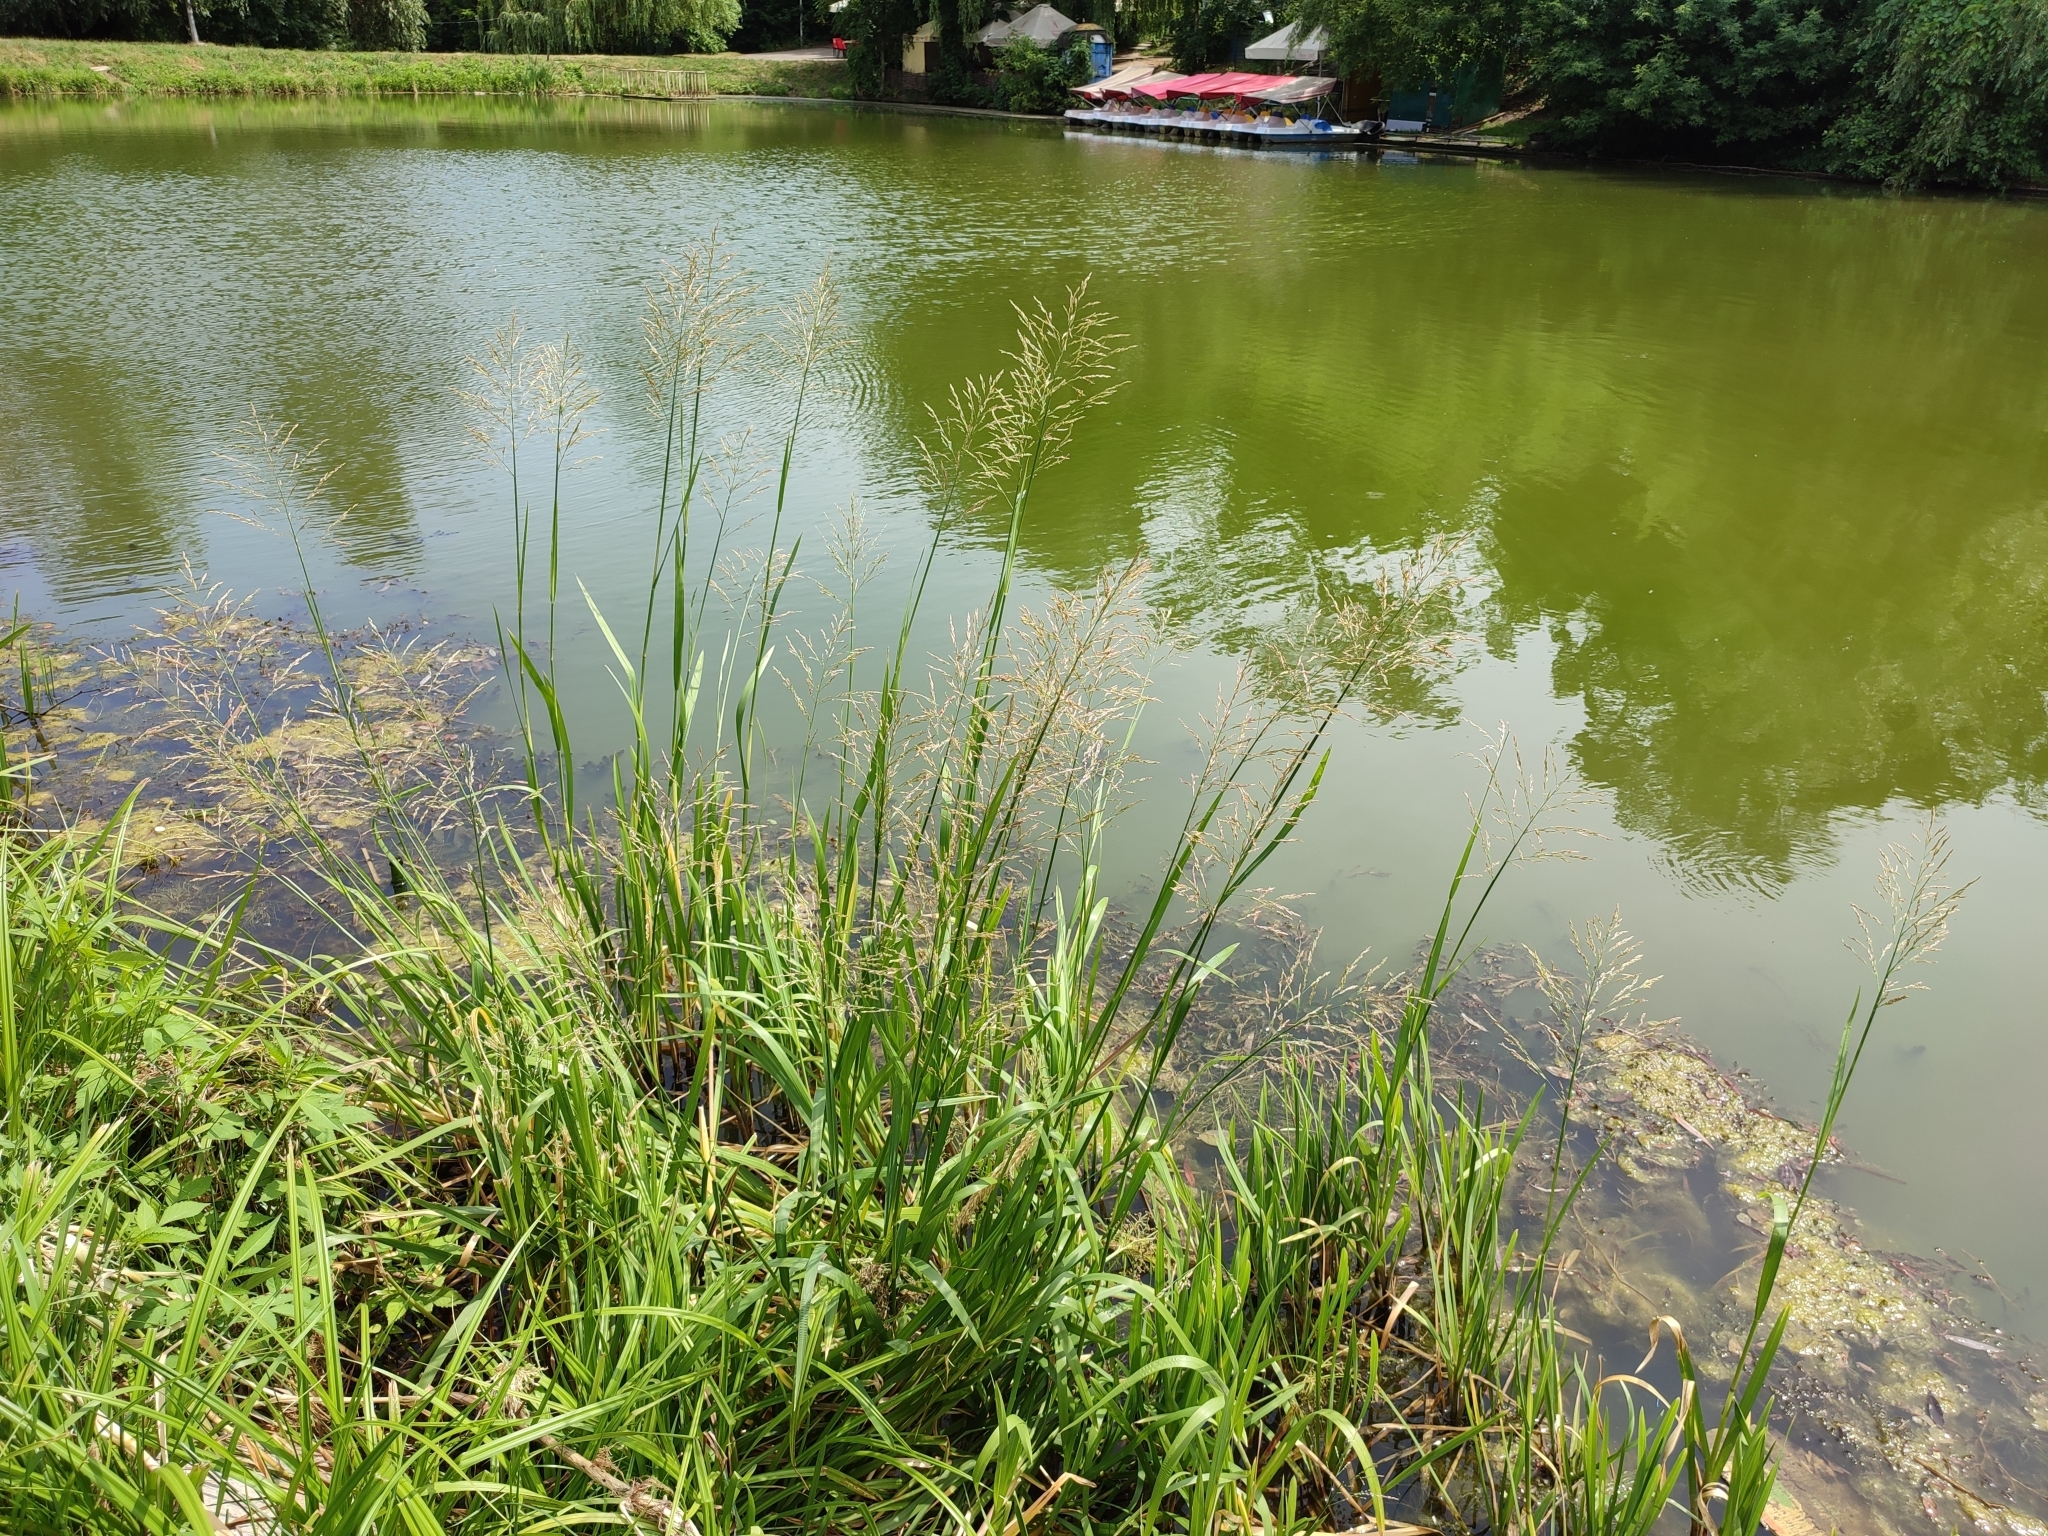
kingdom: Plantae
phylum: Tracheophyta
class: Liliopsida
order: Poales
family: Poaceae
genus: Glyceria
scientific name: Glyceria maxima
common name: Reed mannagrass
